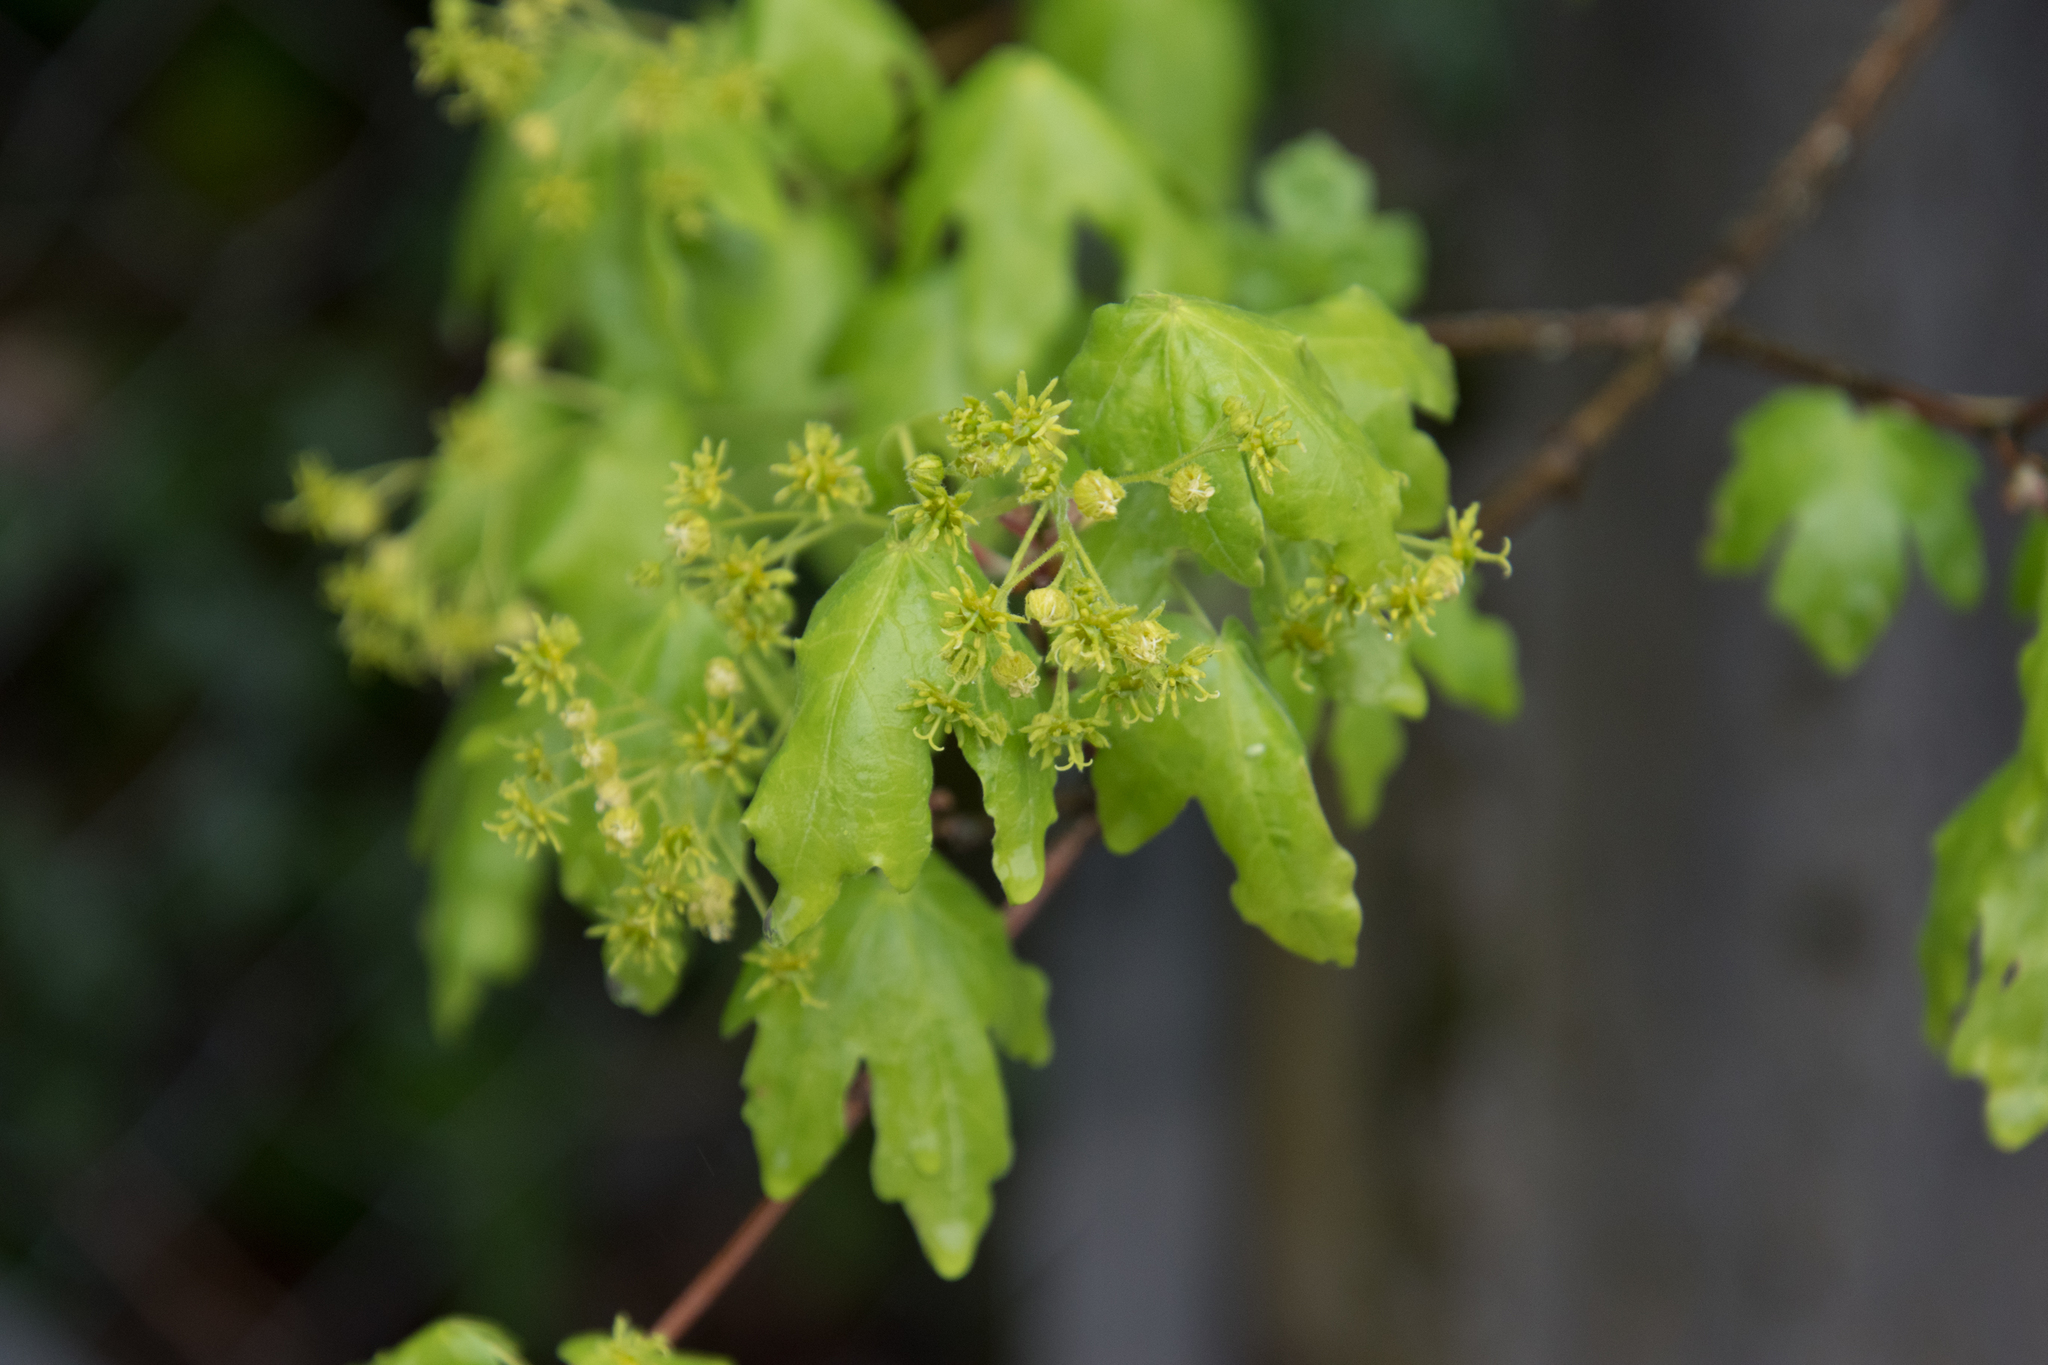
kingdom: Plantae
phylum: Tracheophyta
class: Magnoliopsida
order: Sapindales
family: Sapindaceae
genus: Acer
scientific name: Acer campestre
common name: Field maple
